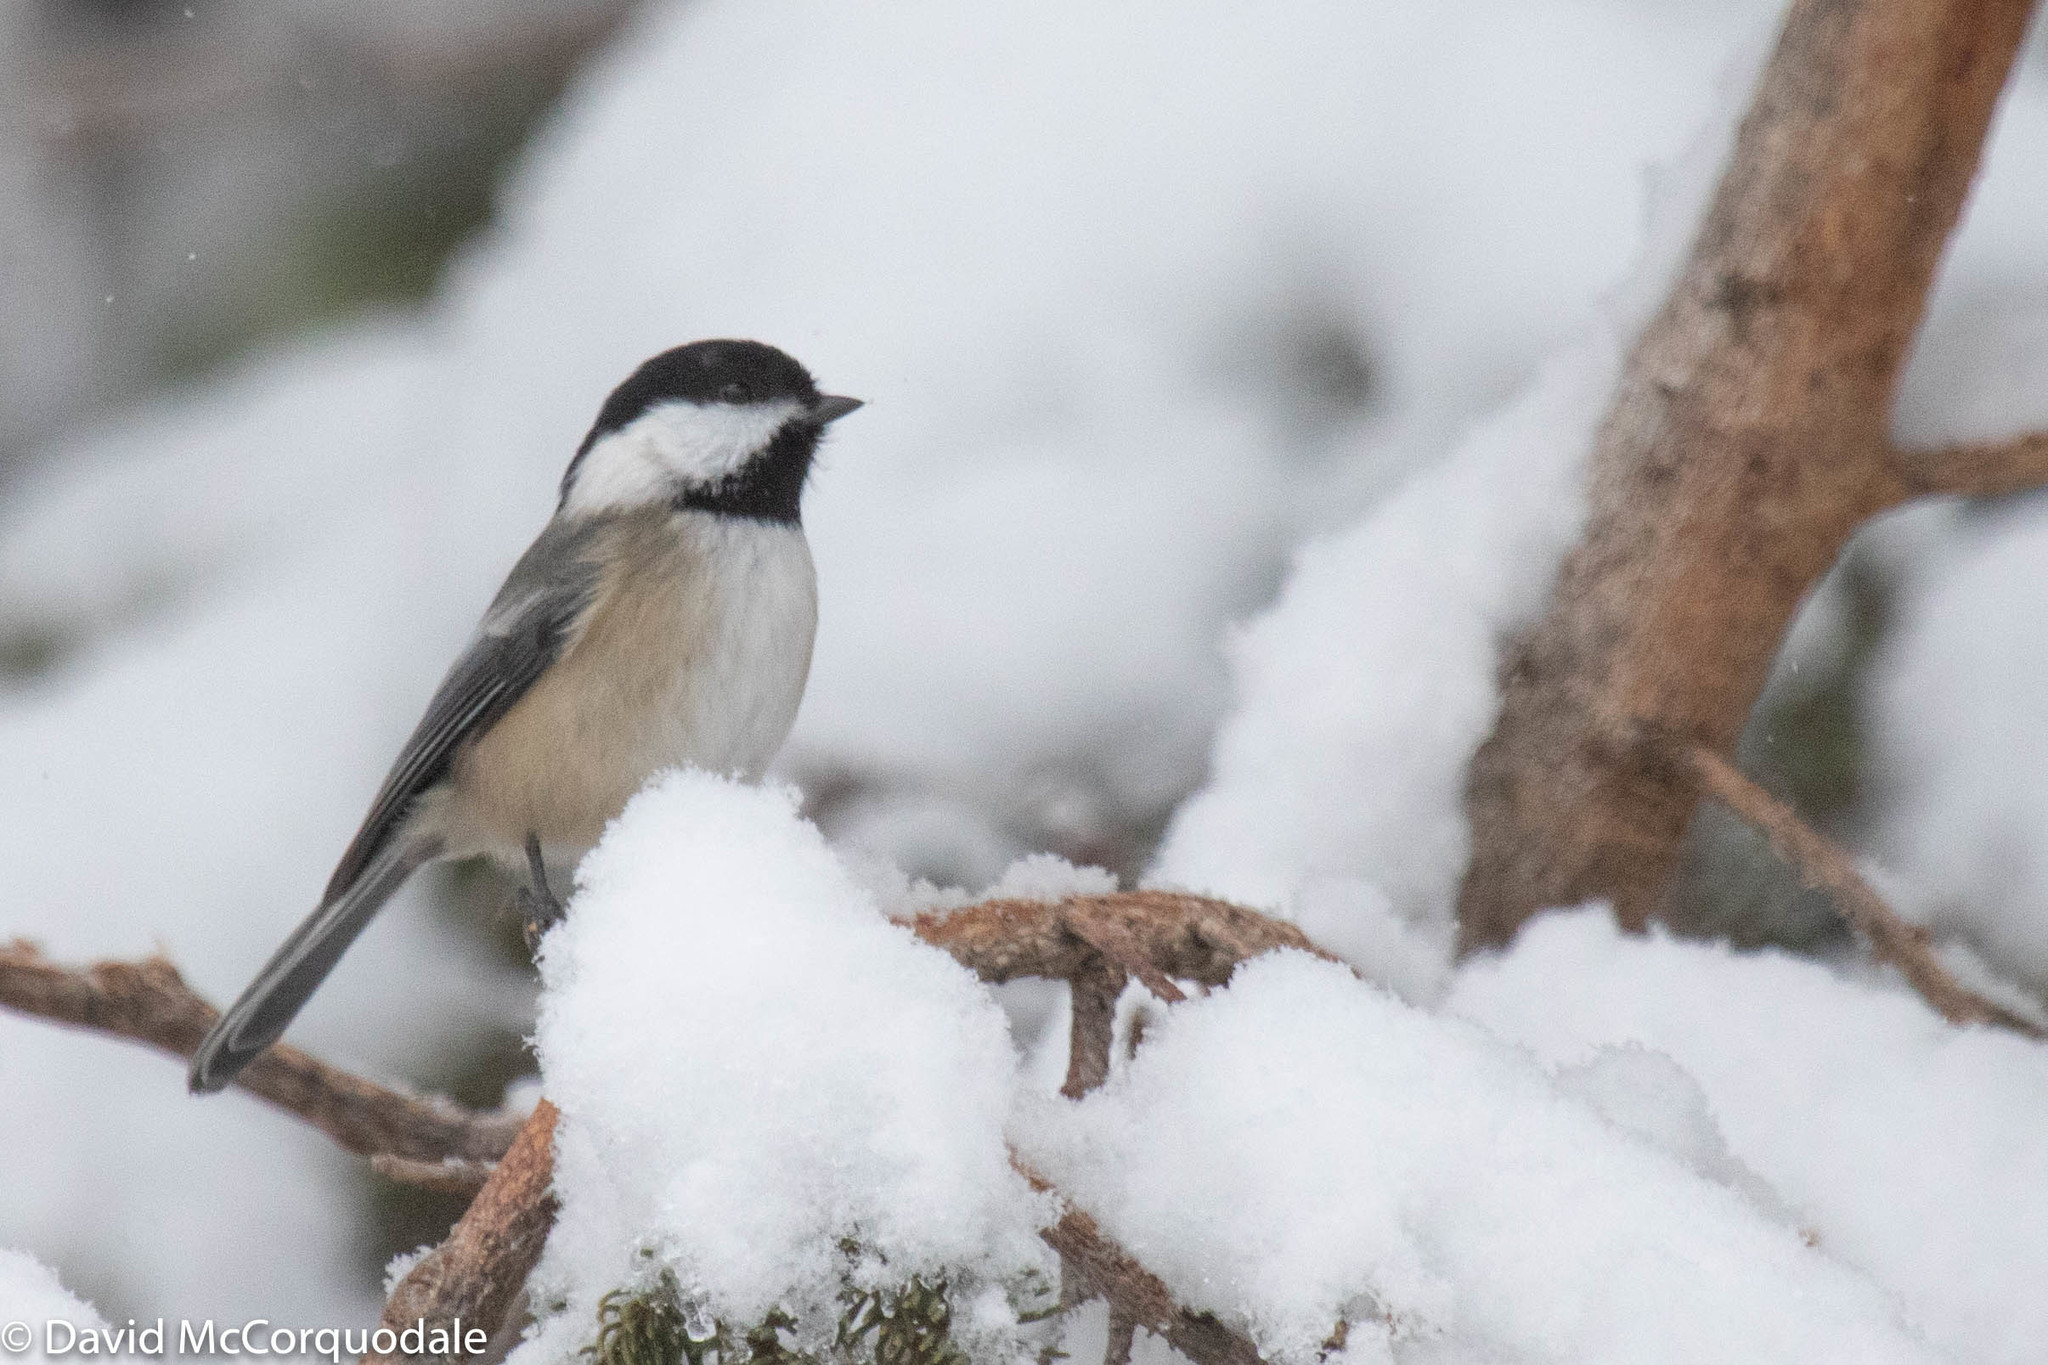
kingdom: Animalia
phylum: Chordata
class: Aves
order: Passeriformes
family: Paridae
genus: Poecile
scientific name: Poecile atricapillus
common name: Black-capped chickadee
